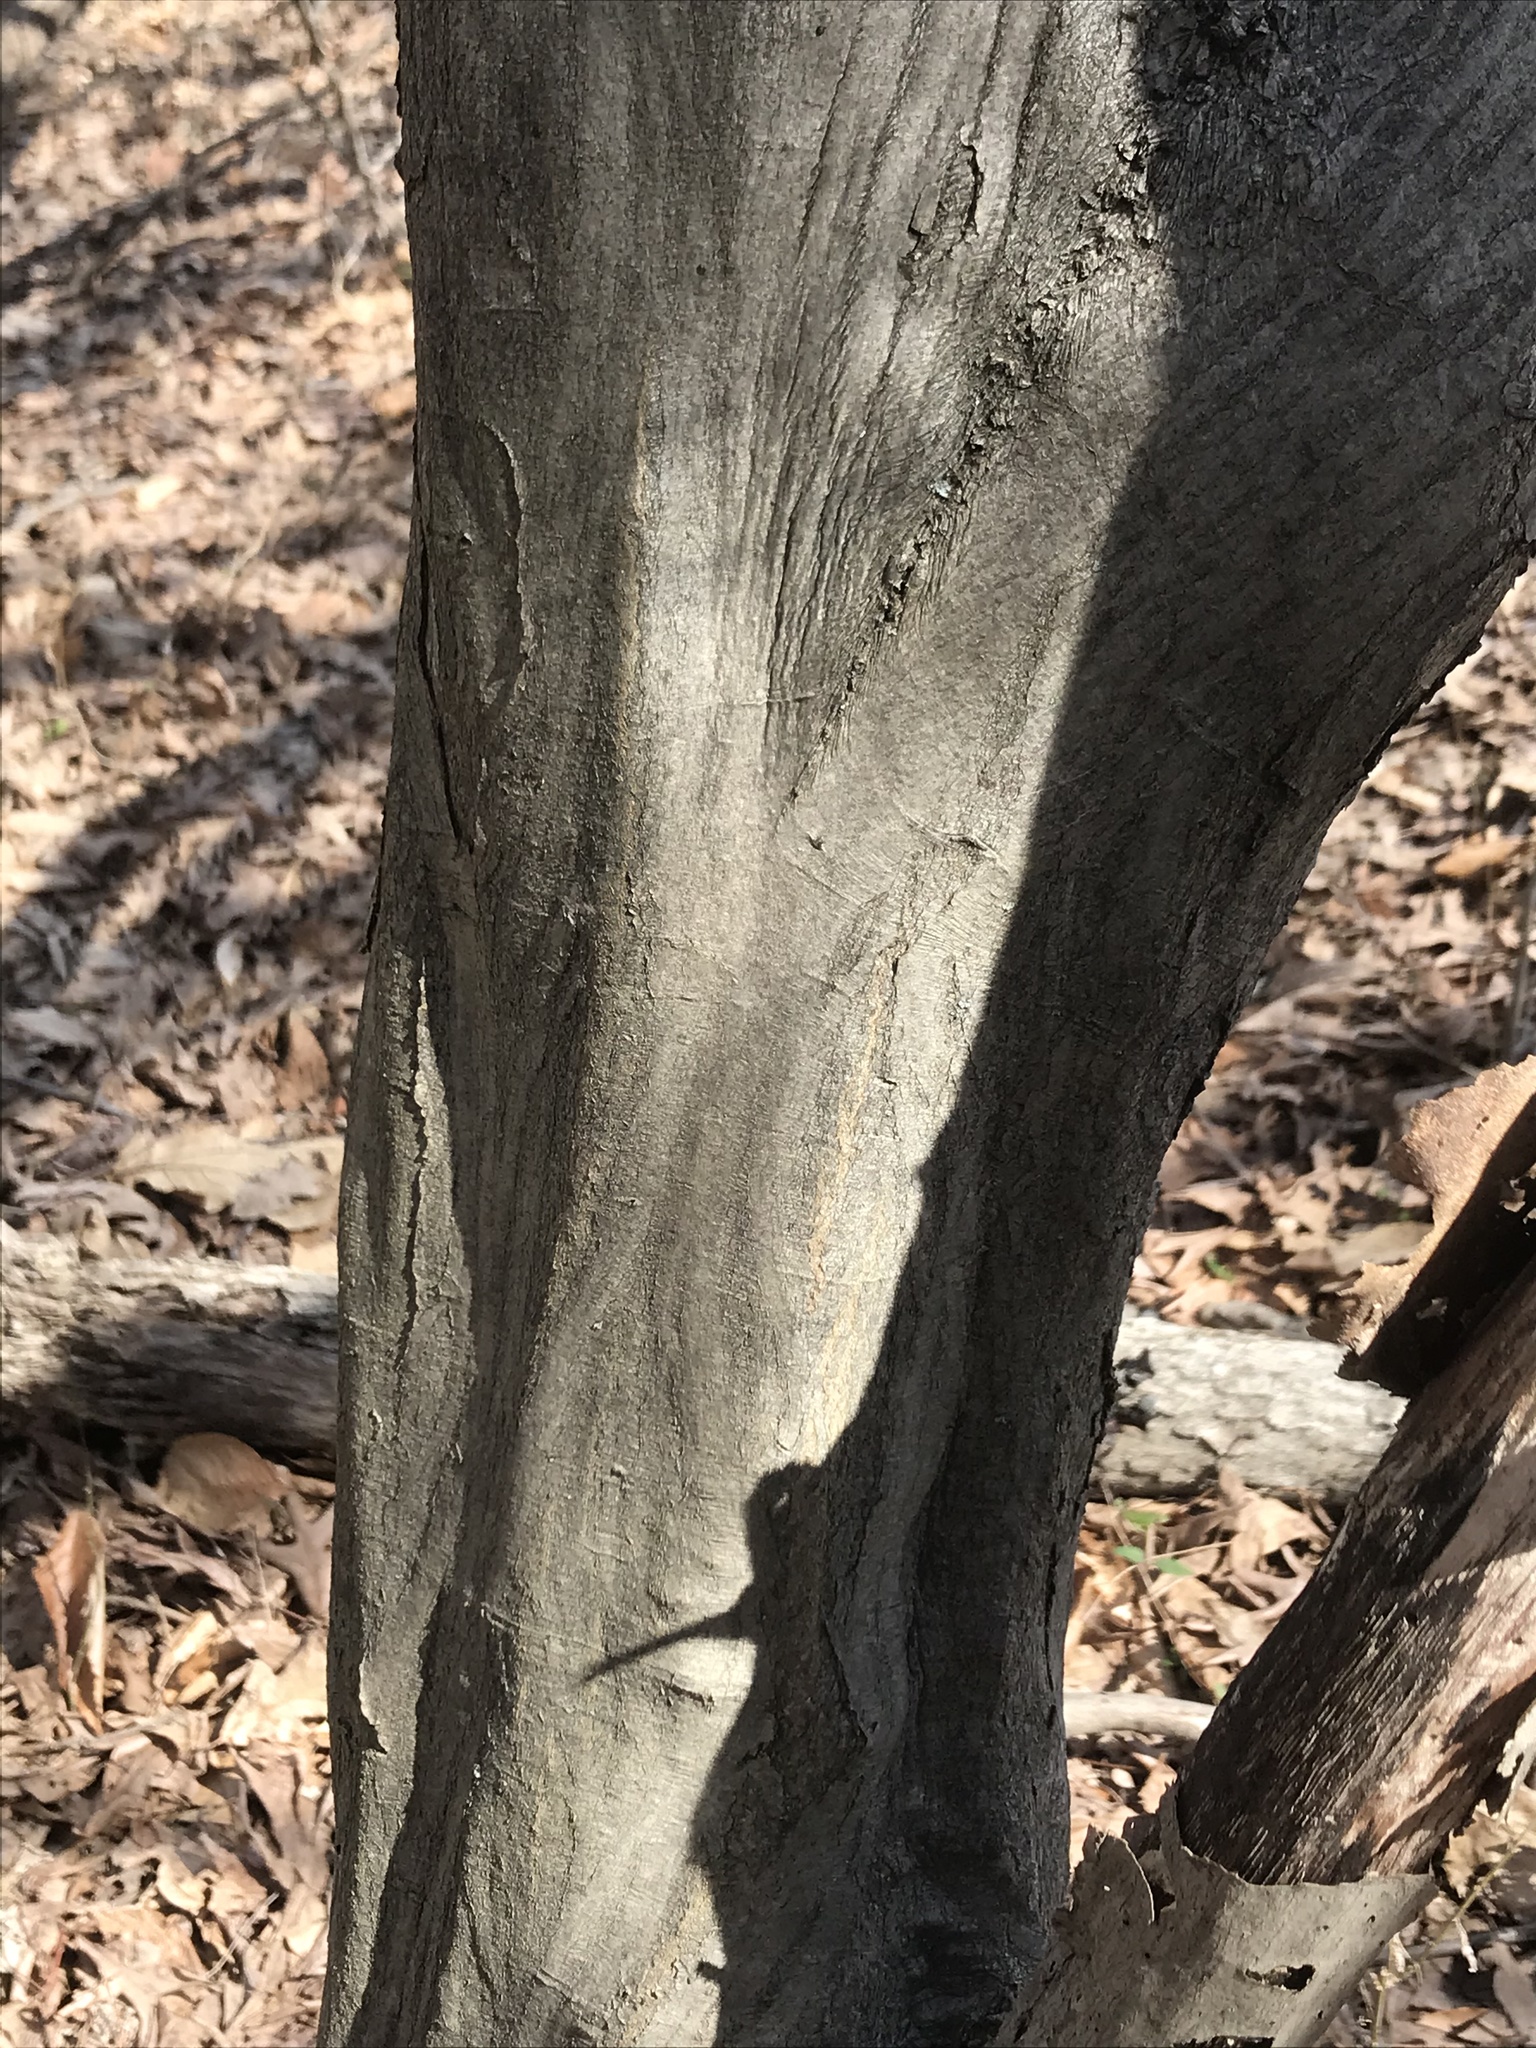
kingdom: Plantae
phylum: Tracheophyta
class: Magnoliopsida
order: Fagales
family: Betulaceae
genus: Carpinus
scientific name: Carpinus caroliniana
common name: American hornbeam
